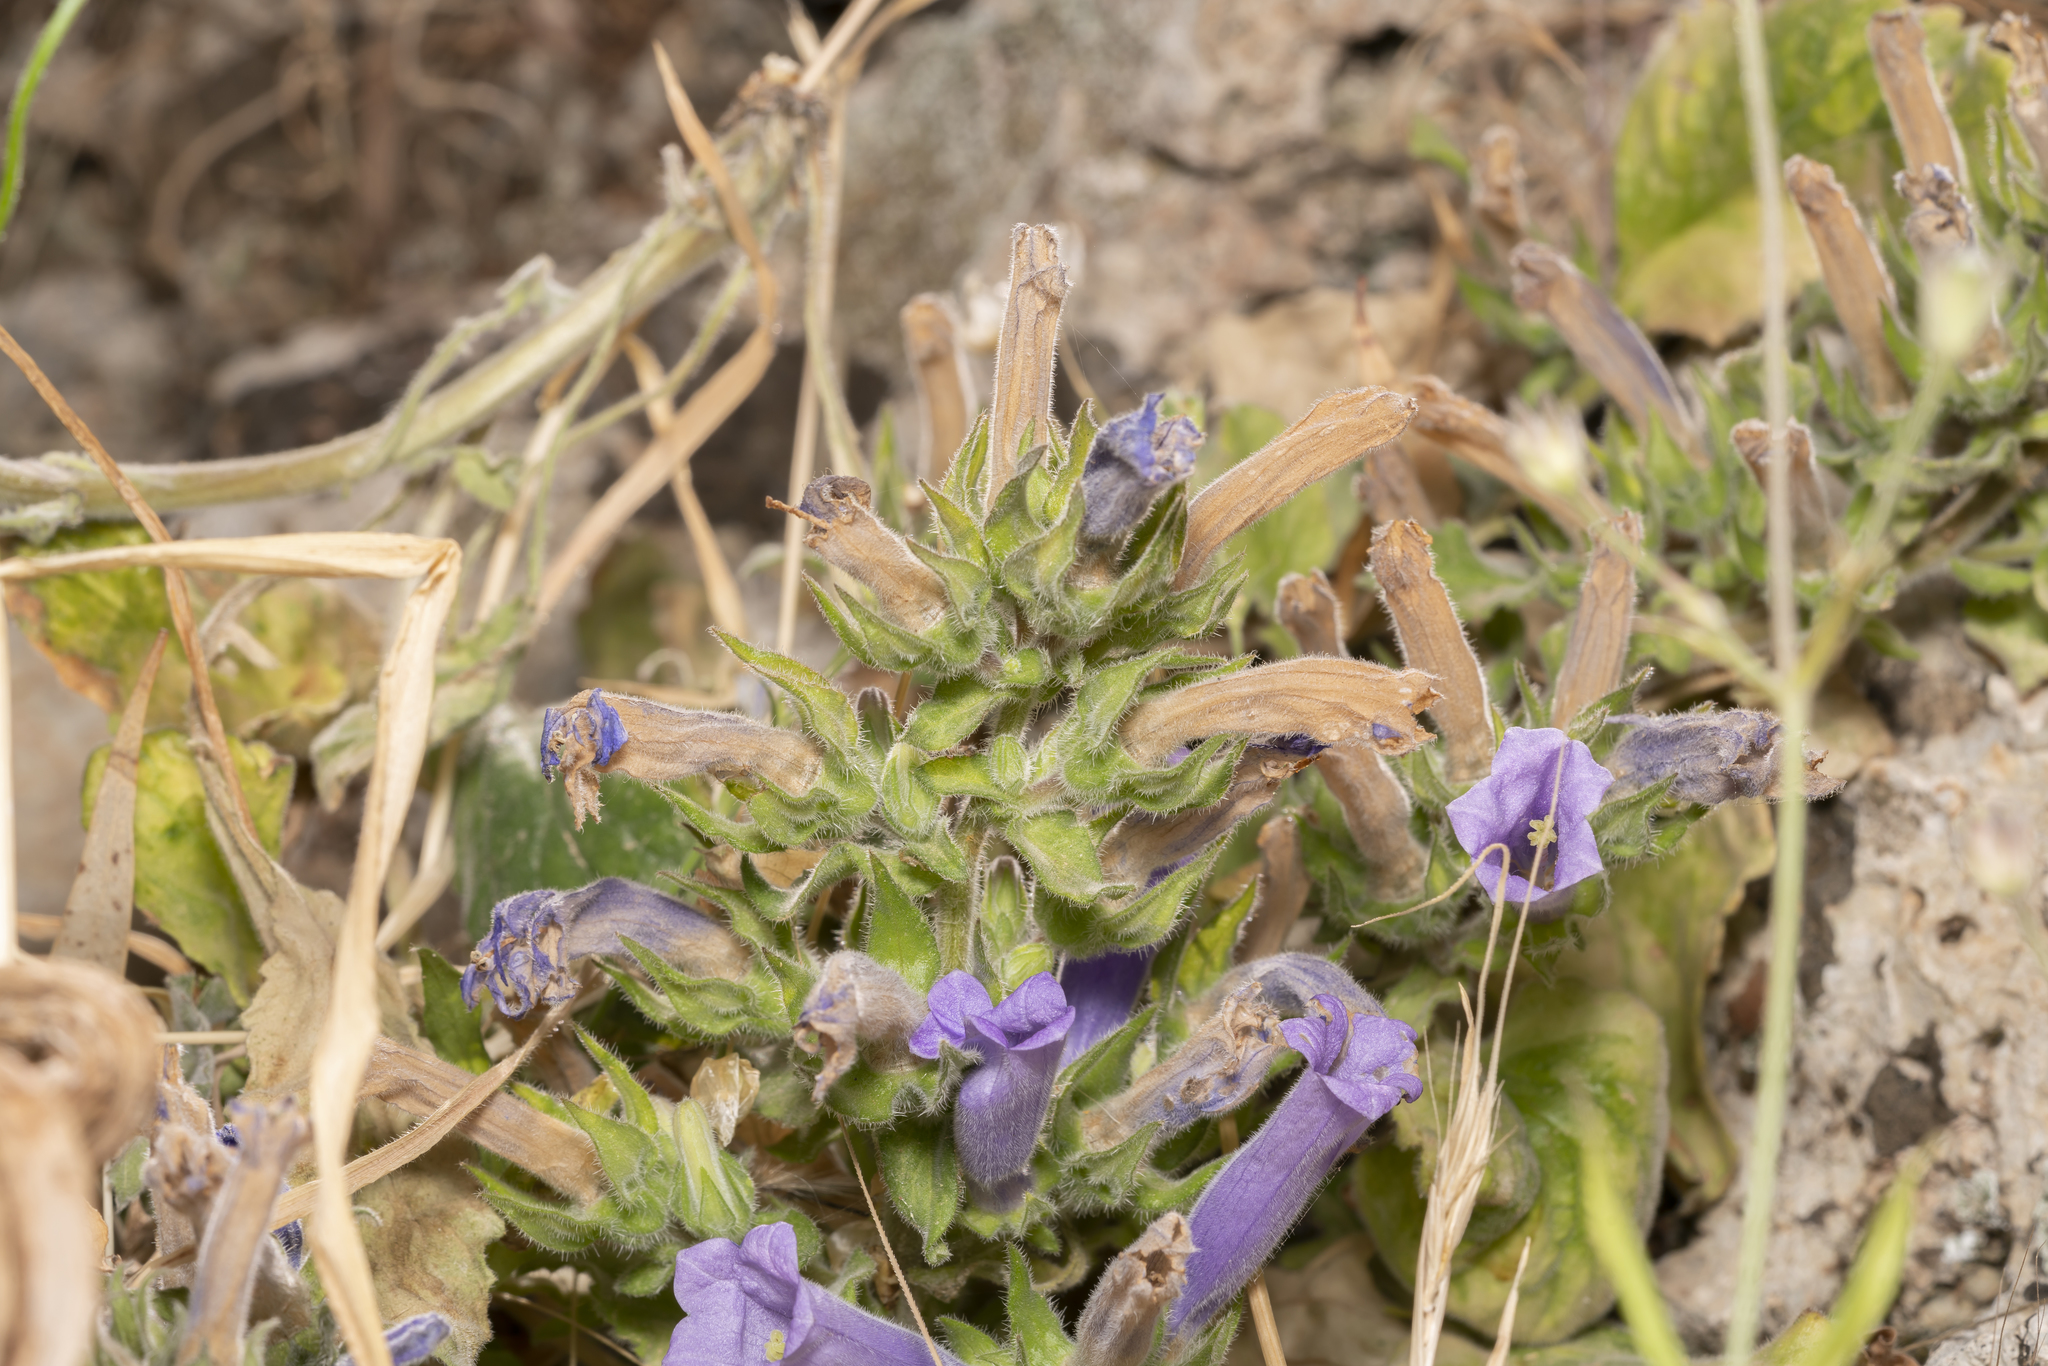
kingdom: Plantae
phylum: Tracheophyta
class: Magnoliopsida
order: Asterales
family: Campanulaceae
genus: Campanula
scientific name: Campanula hagielia
